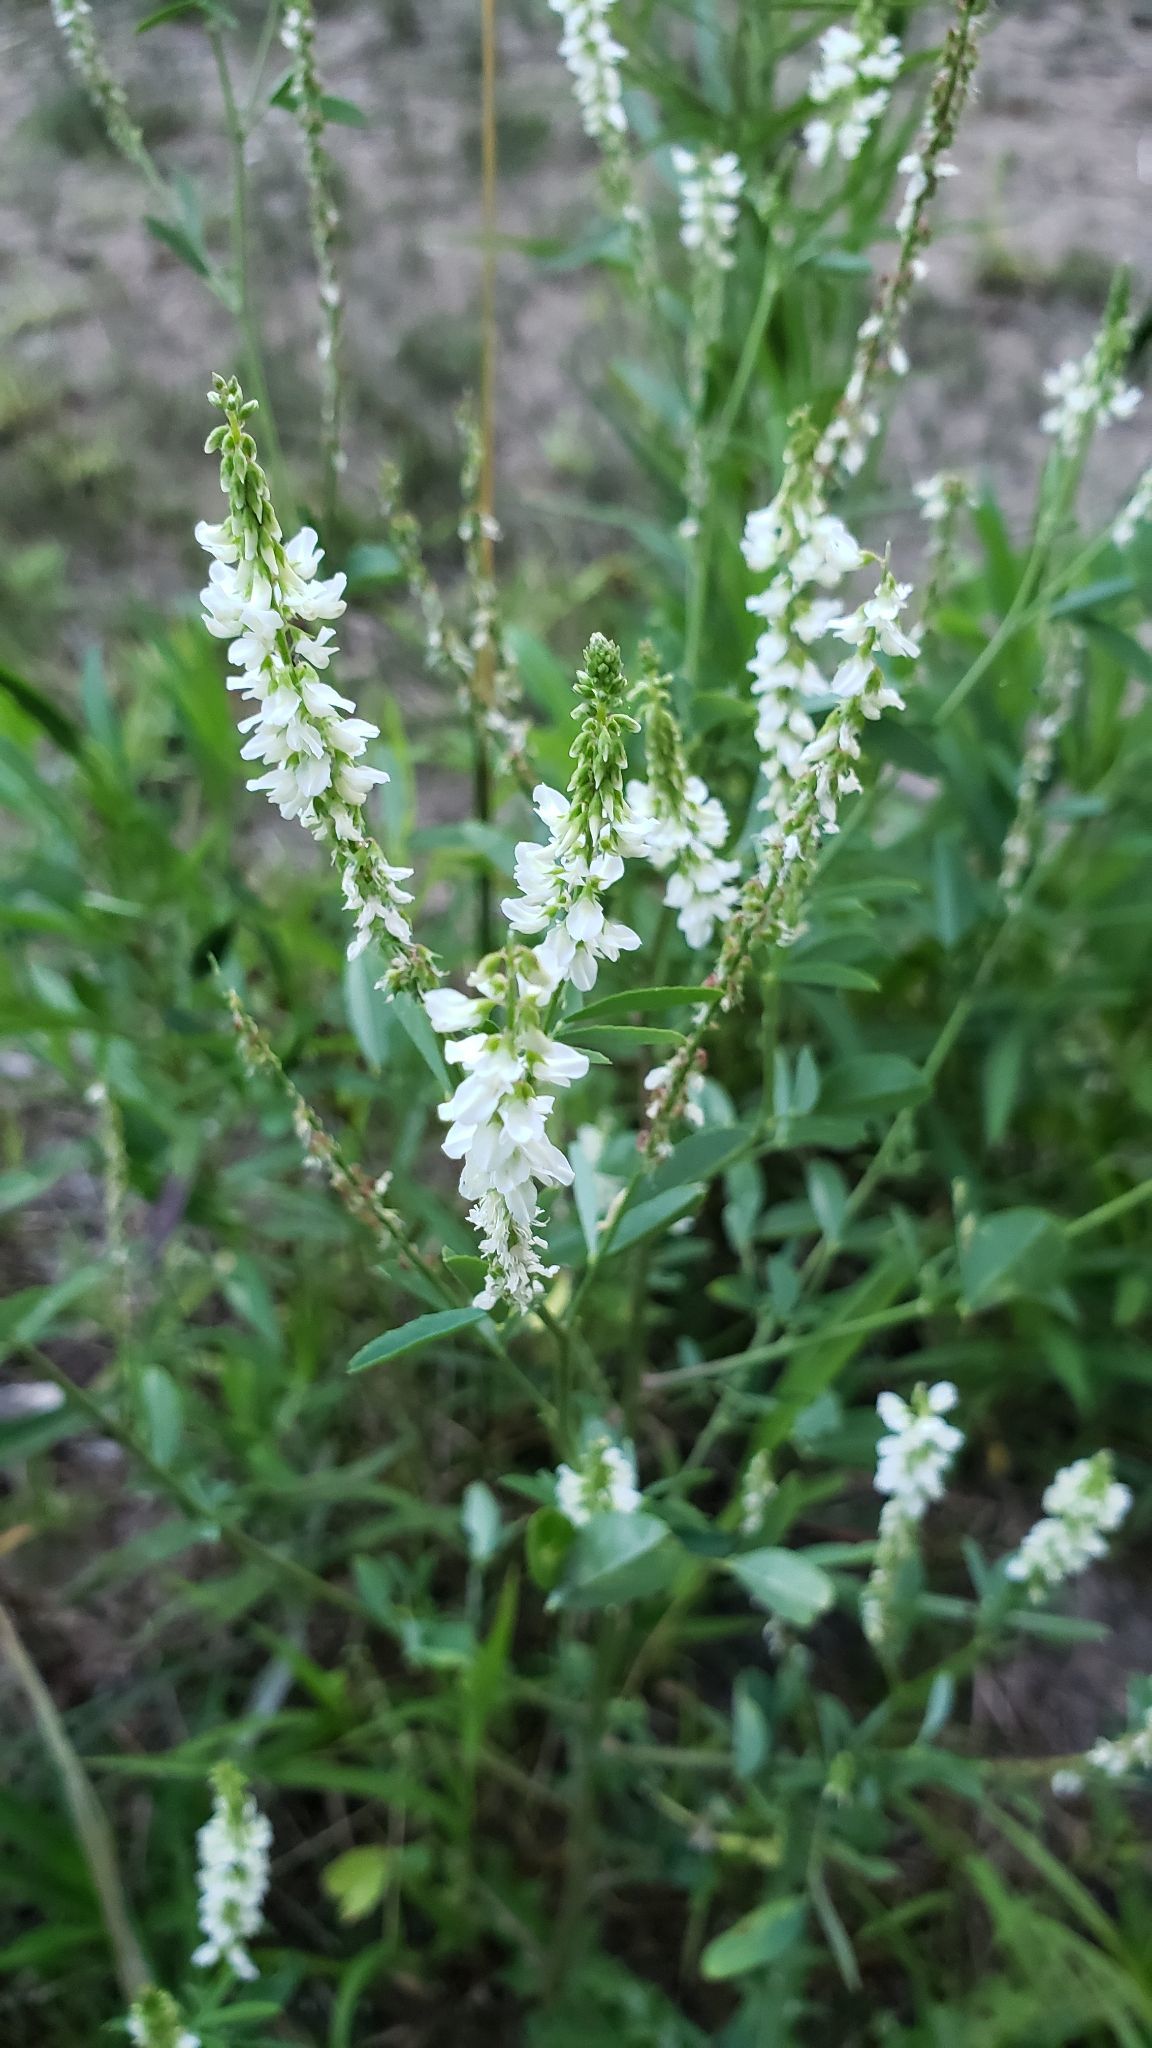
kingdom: Plantae
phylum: Tracheophyta
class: Magnoliopsida
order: Fabales
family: Fabaceae
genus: Melilotus
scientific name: Melilotus albus
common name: White melilot
